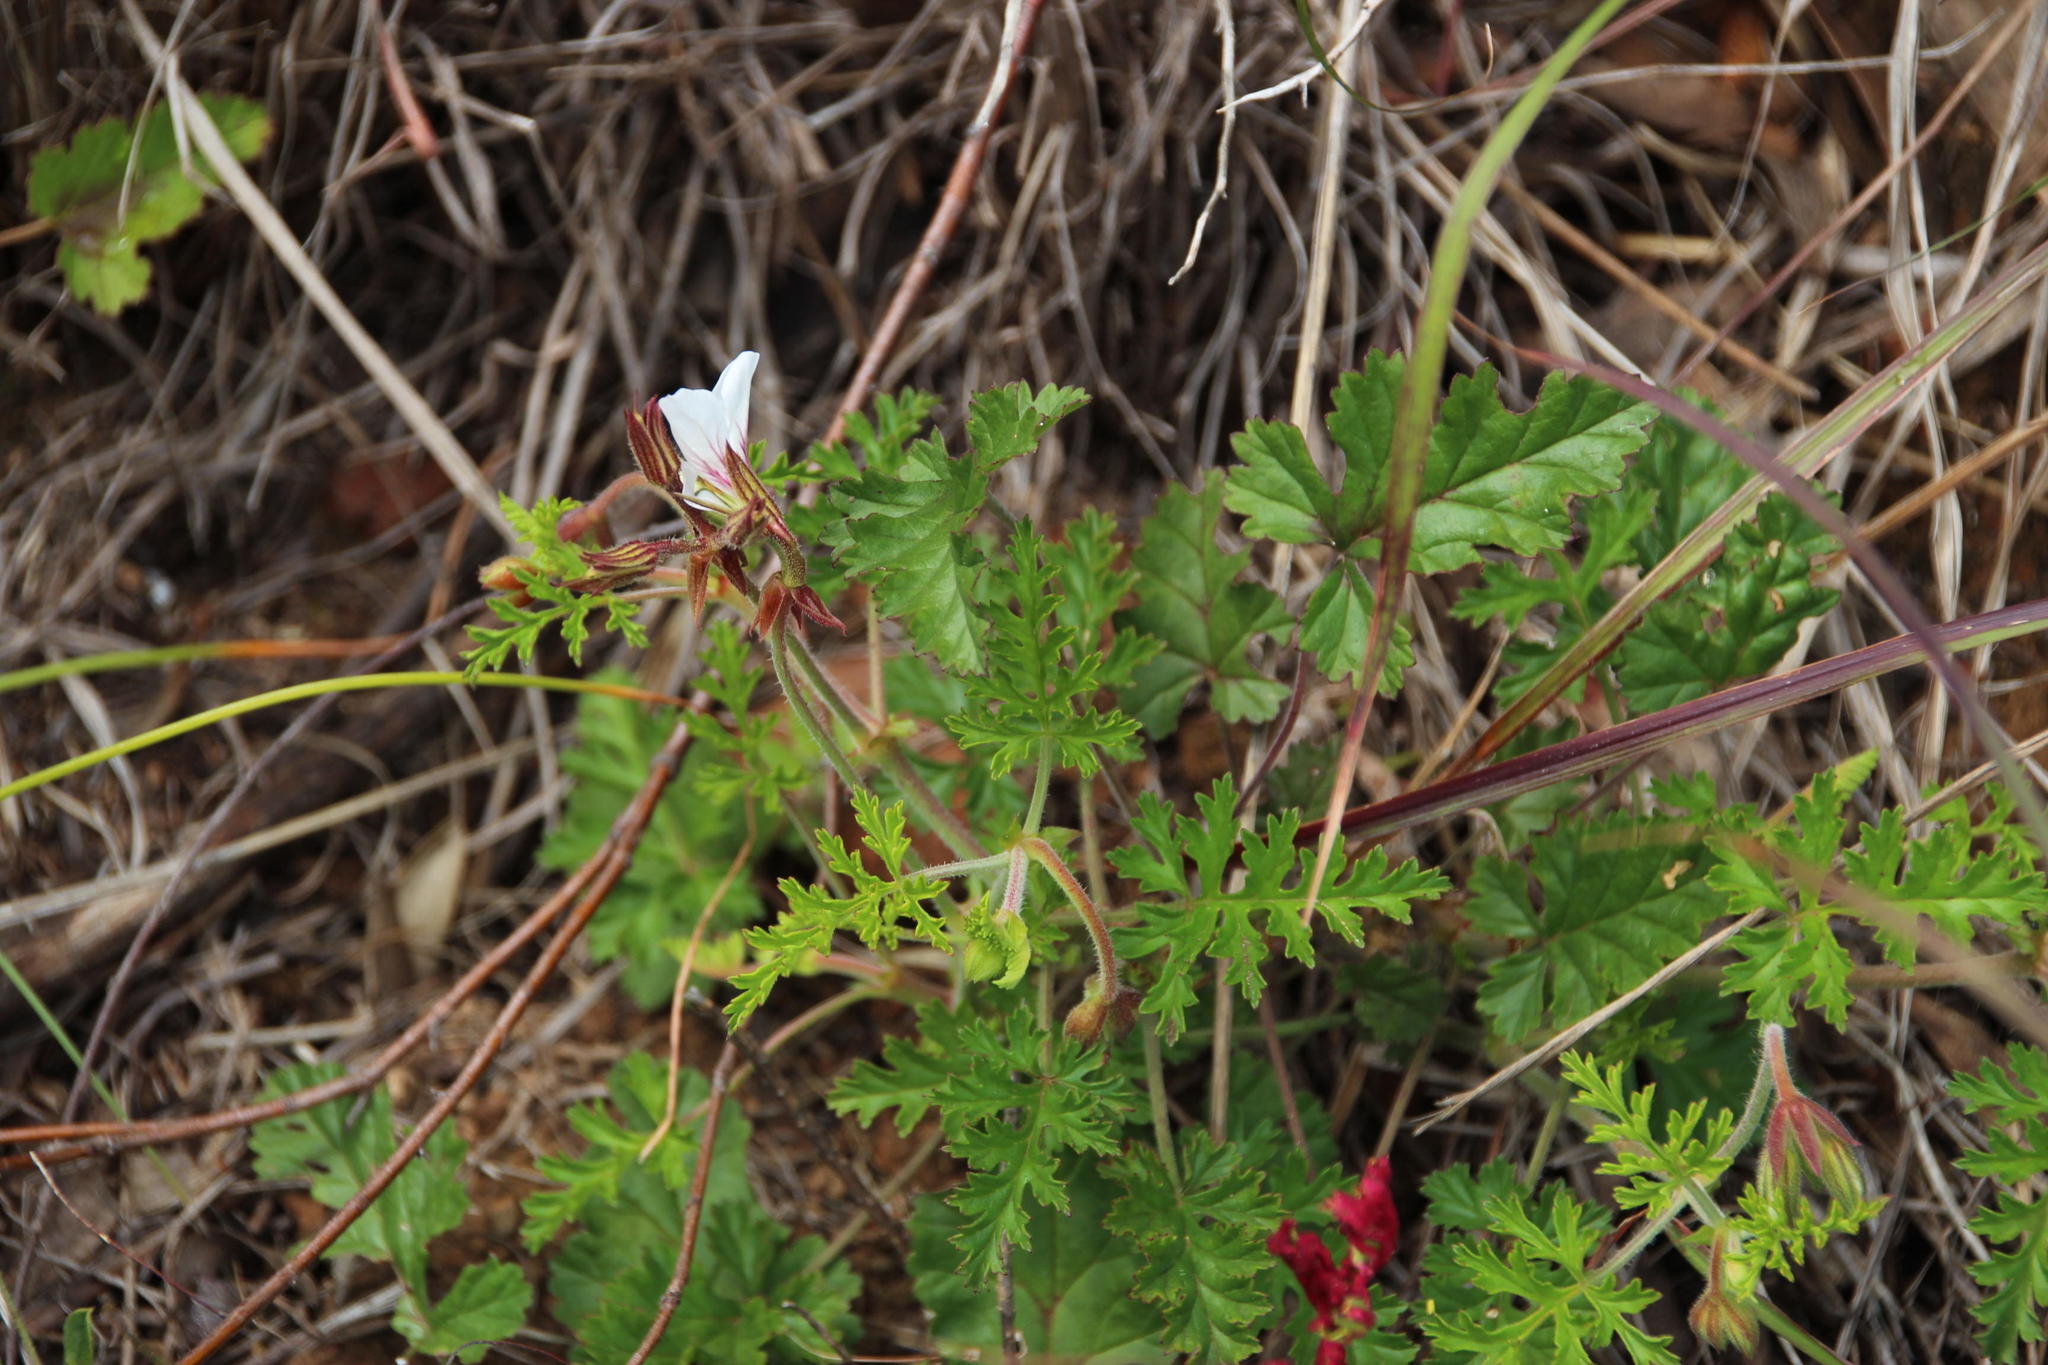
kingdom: Plantae
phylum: Tracheophyta
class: Magnoliopsida
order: Geraniales
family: Geraniaceae
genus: Pelargonium
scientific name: Pelargonium myrrhifolium
